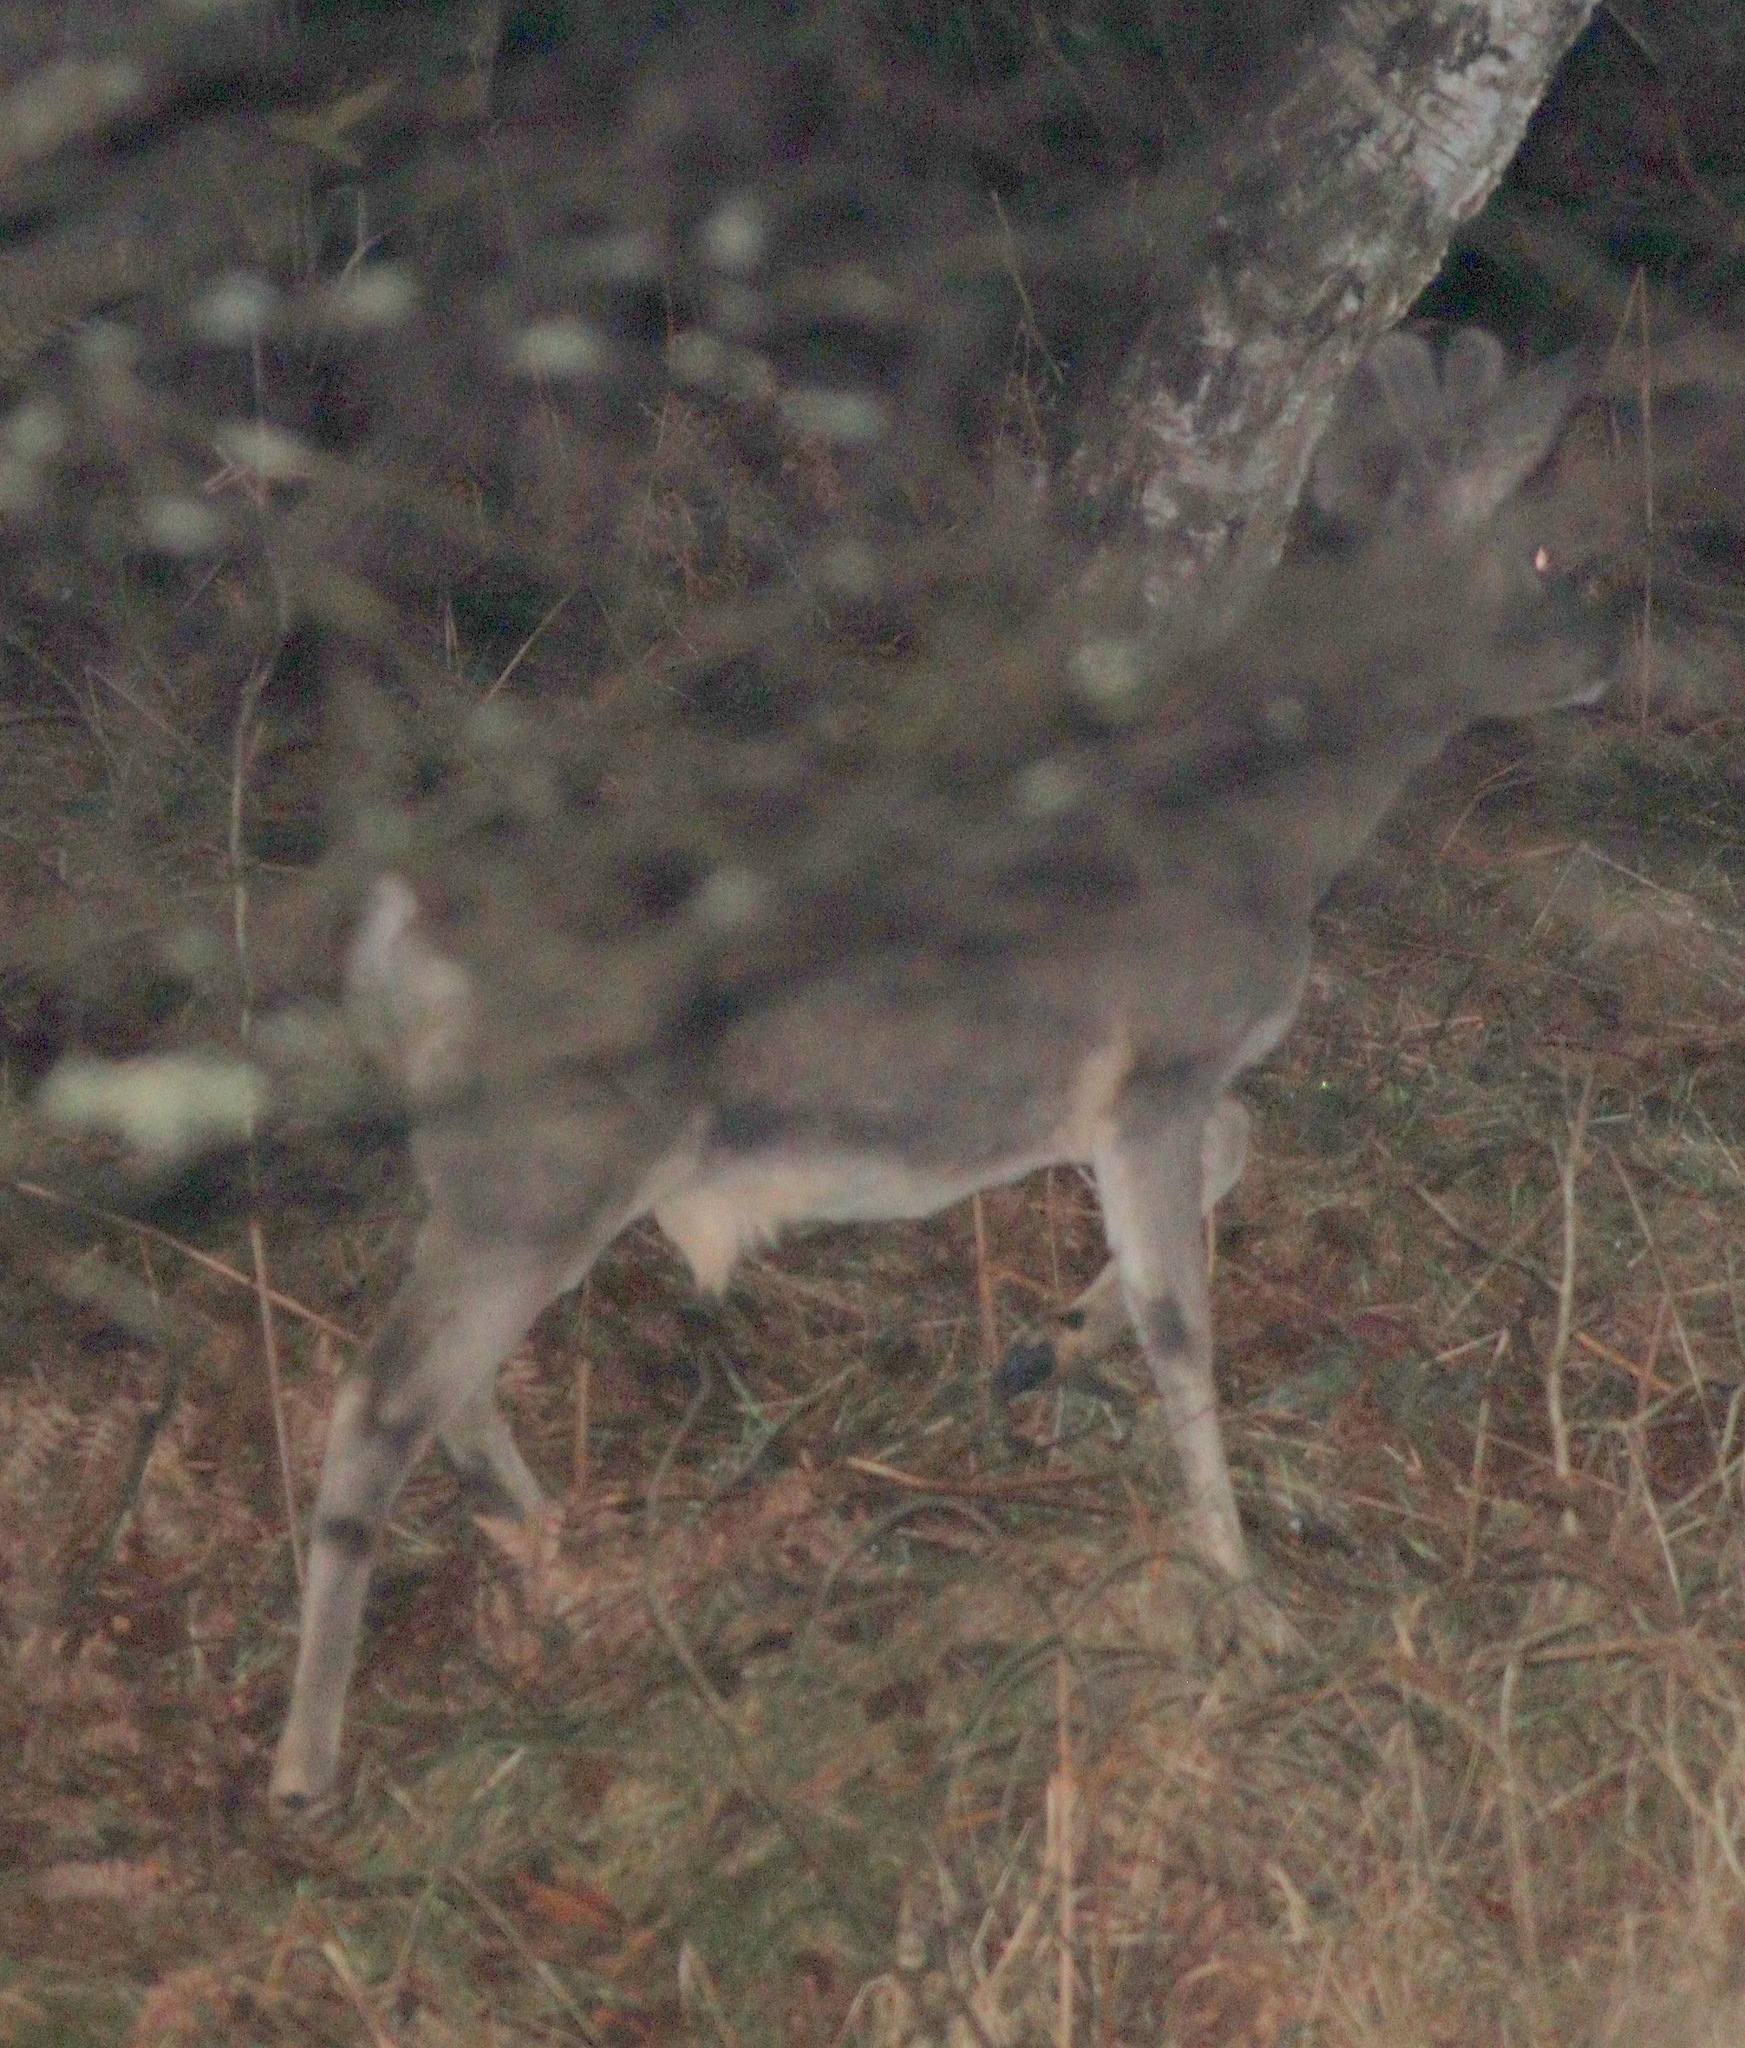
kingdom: Animalia
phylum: Chordata
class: Mammalia
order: Artiodactyla
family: Cervidae
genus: Capreolus
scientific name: Capreolus capreolus
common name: Western roe deer
